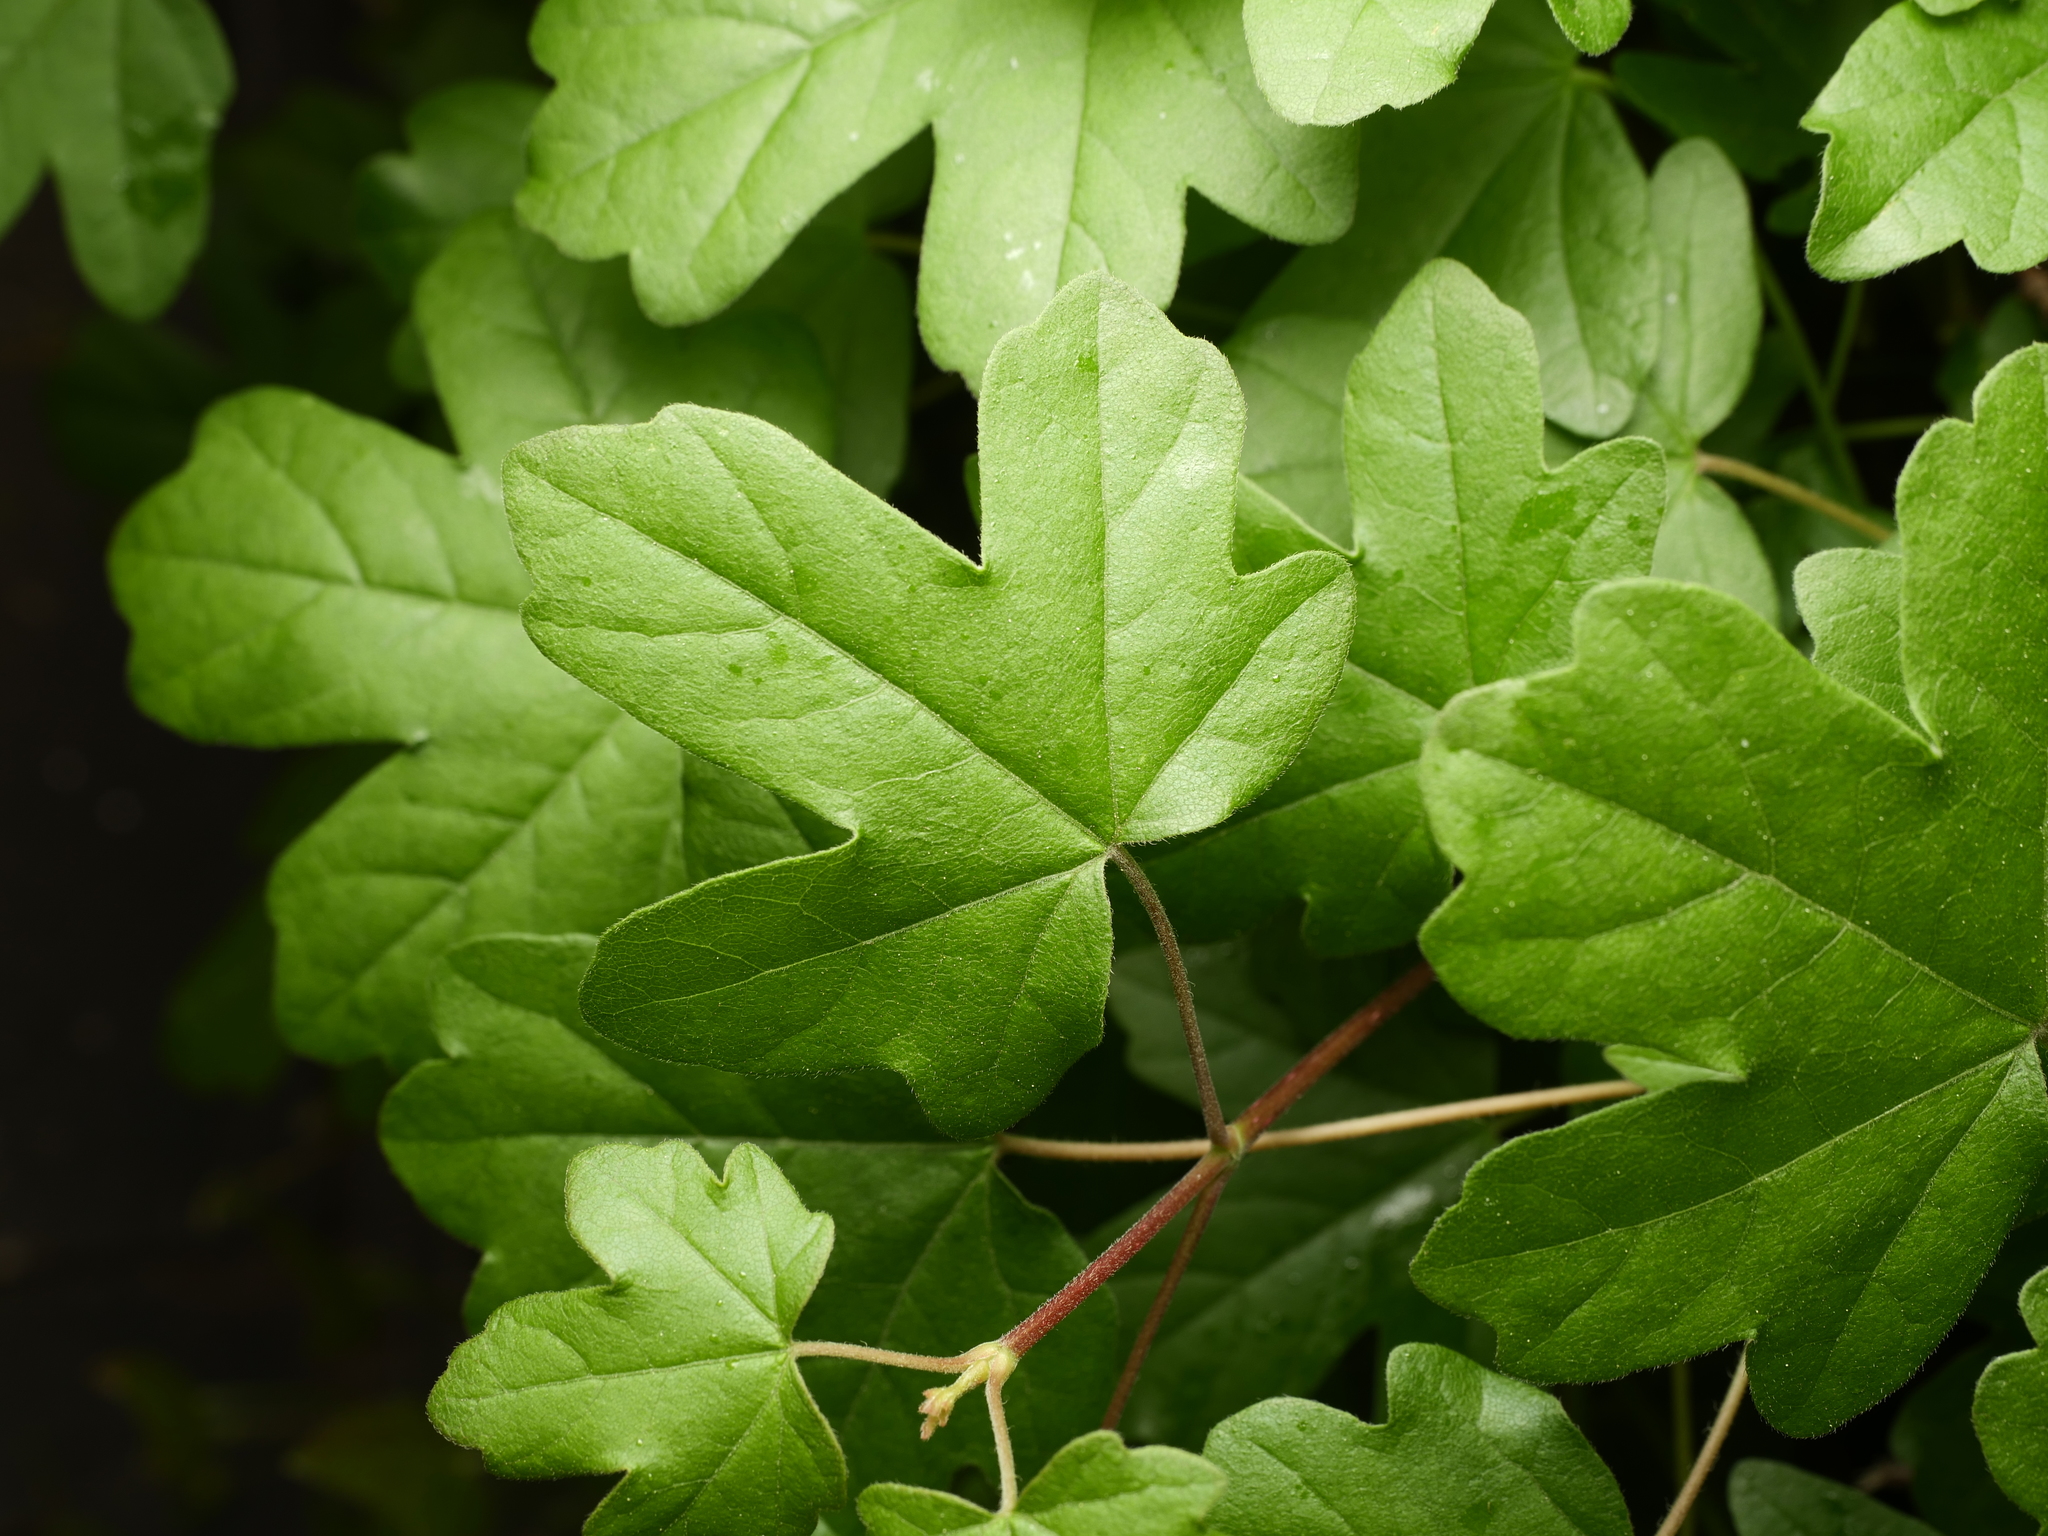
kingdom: Plantae
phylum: Tracheophyta
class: Magnoliopsida
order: Sapindales
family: Sapindaceae
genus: Acer
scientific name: Acer campestre
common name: Field maple
